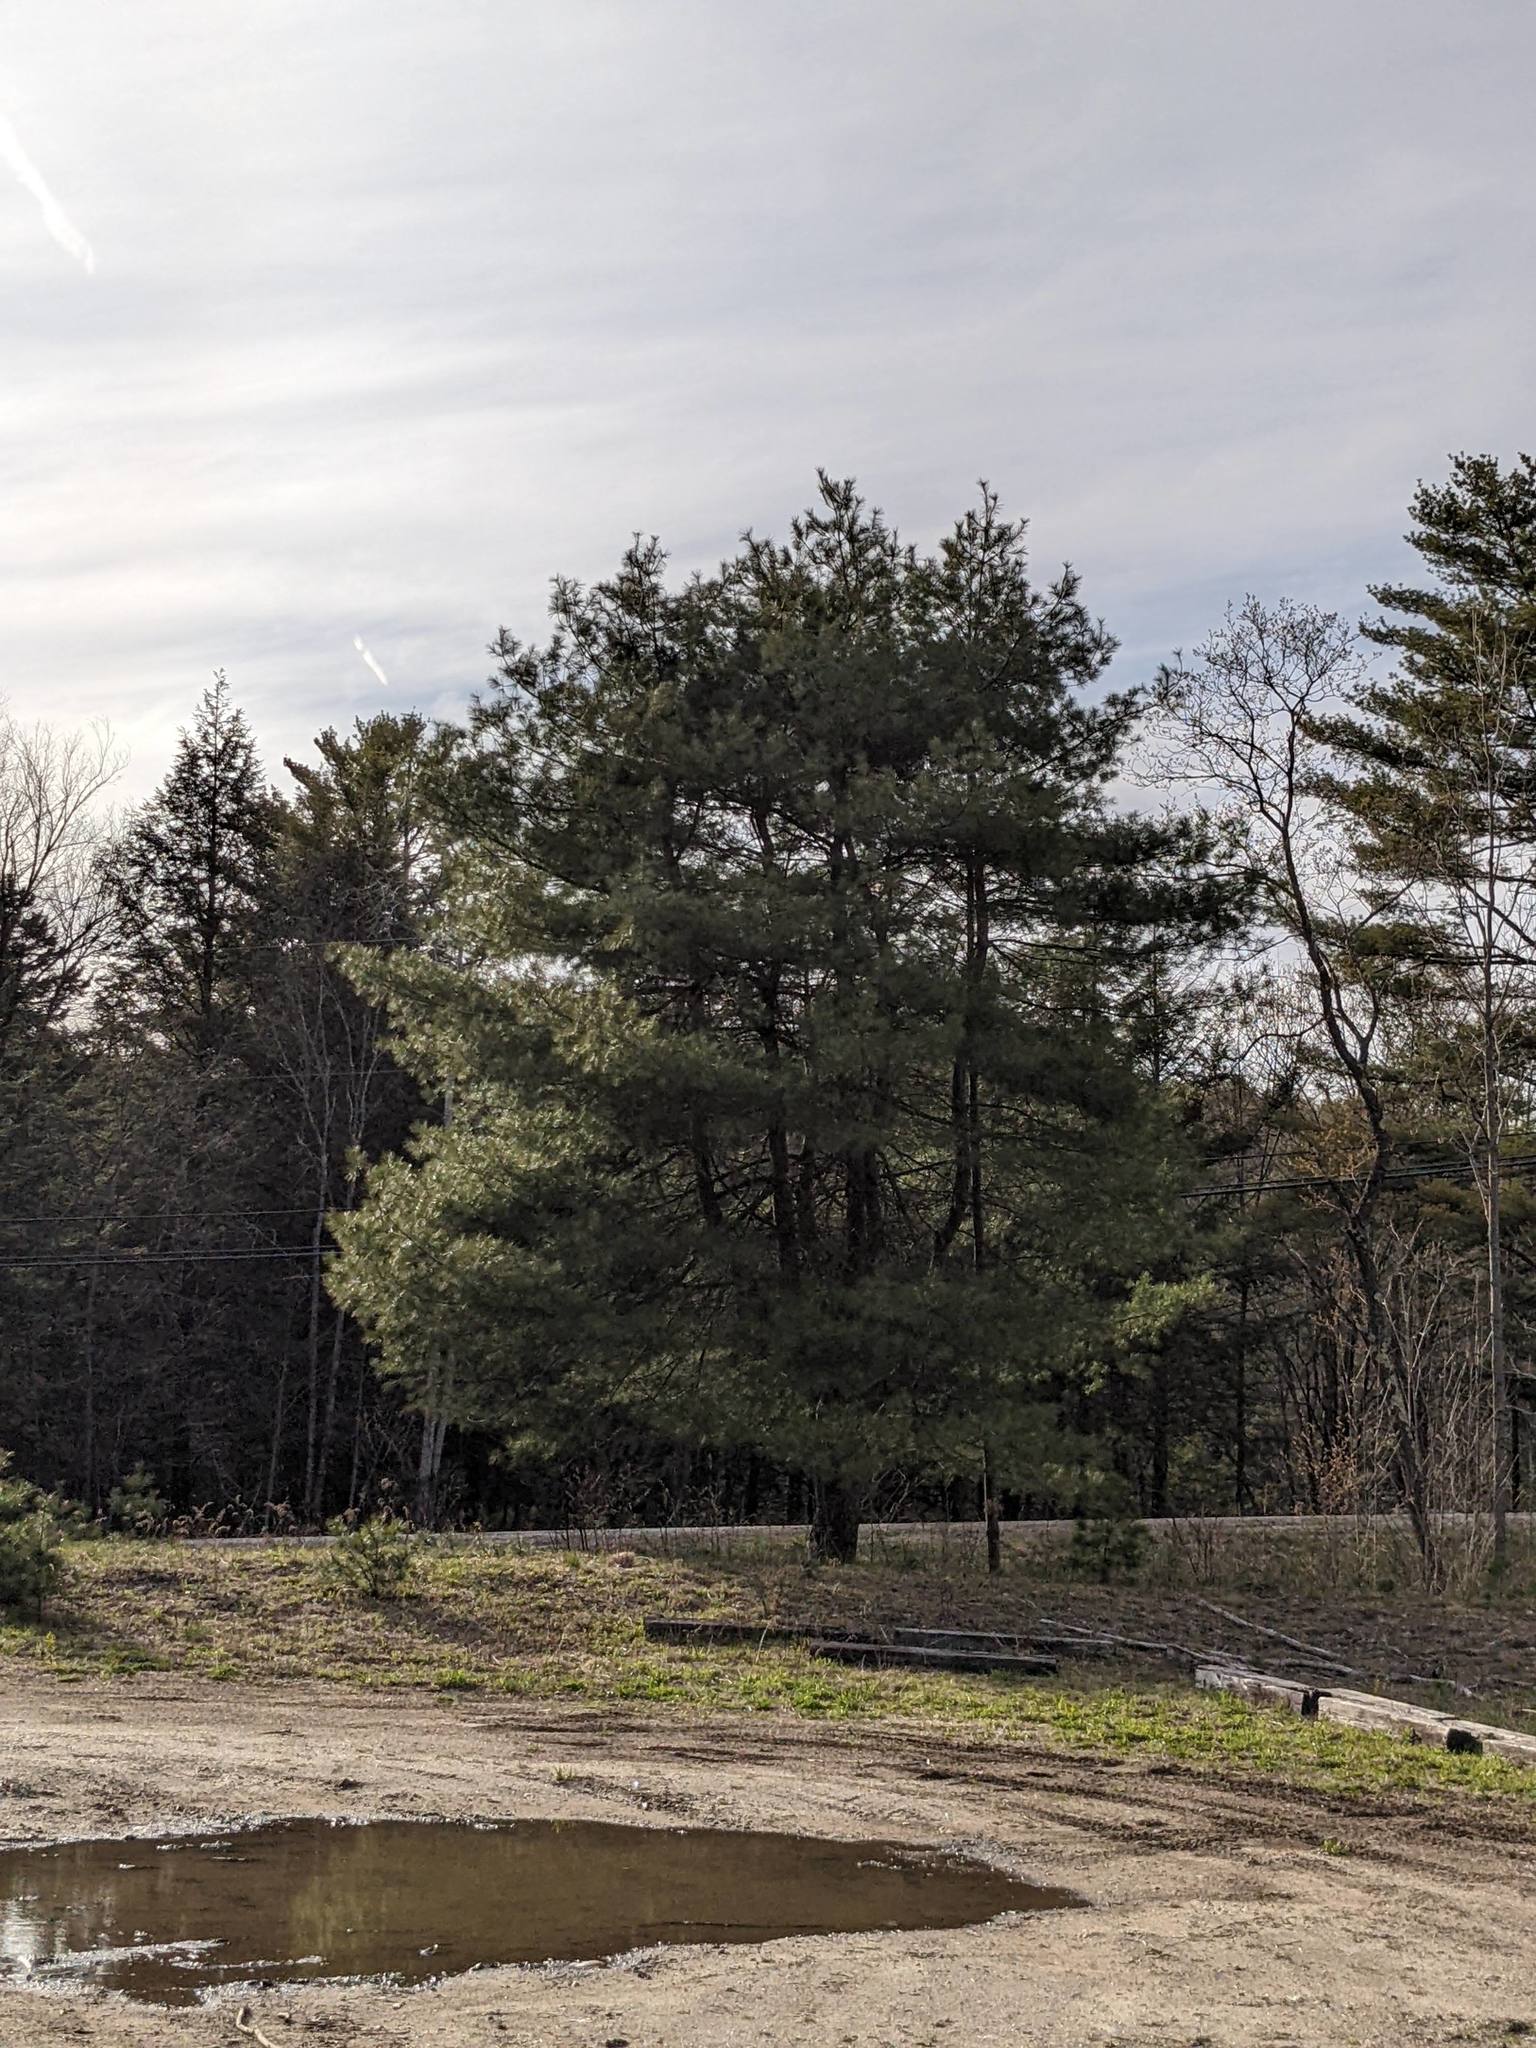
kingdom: Plantae
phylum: Tracheophyta
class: Pinopsida
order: Pinales
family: Pinaceae
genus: Pinus
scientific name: Pinus strobus
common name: Weymouth pine
